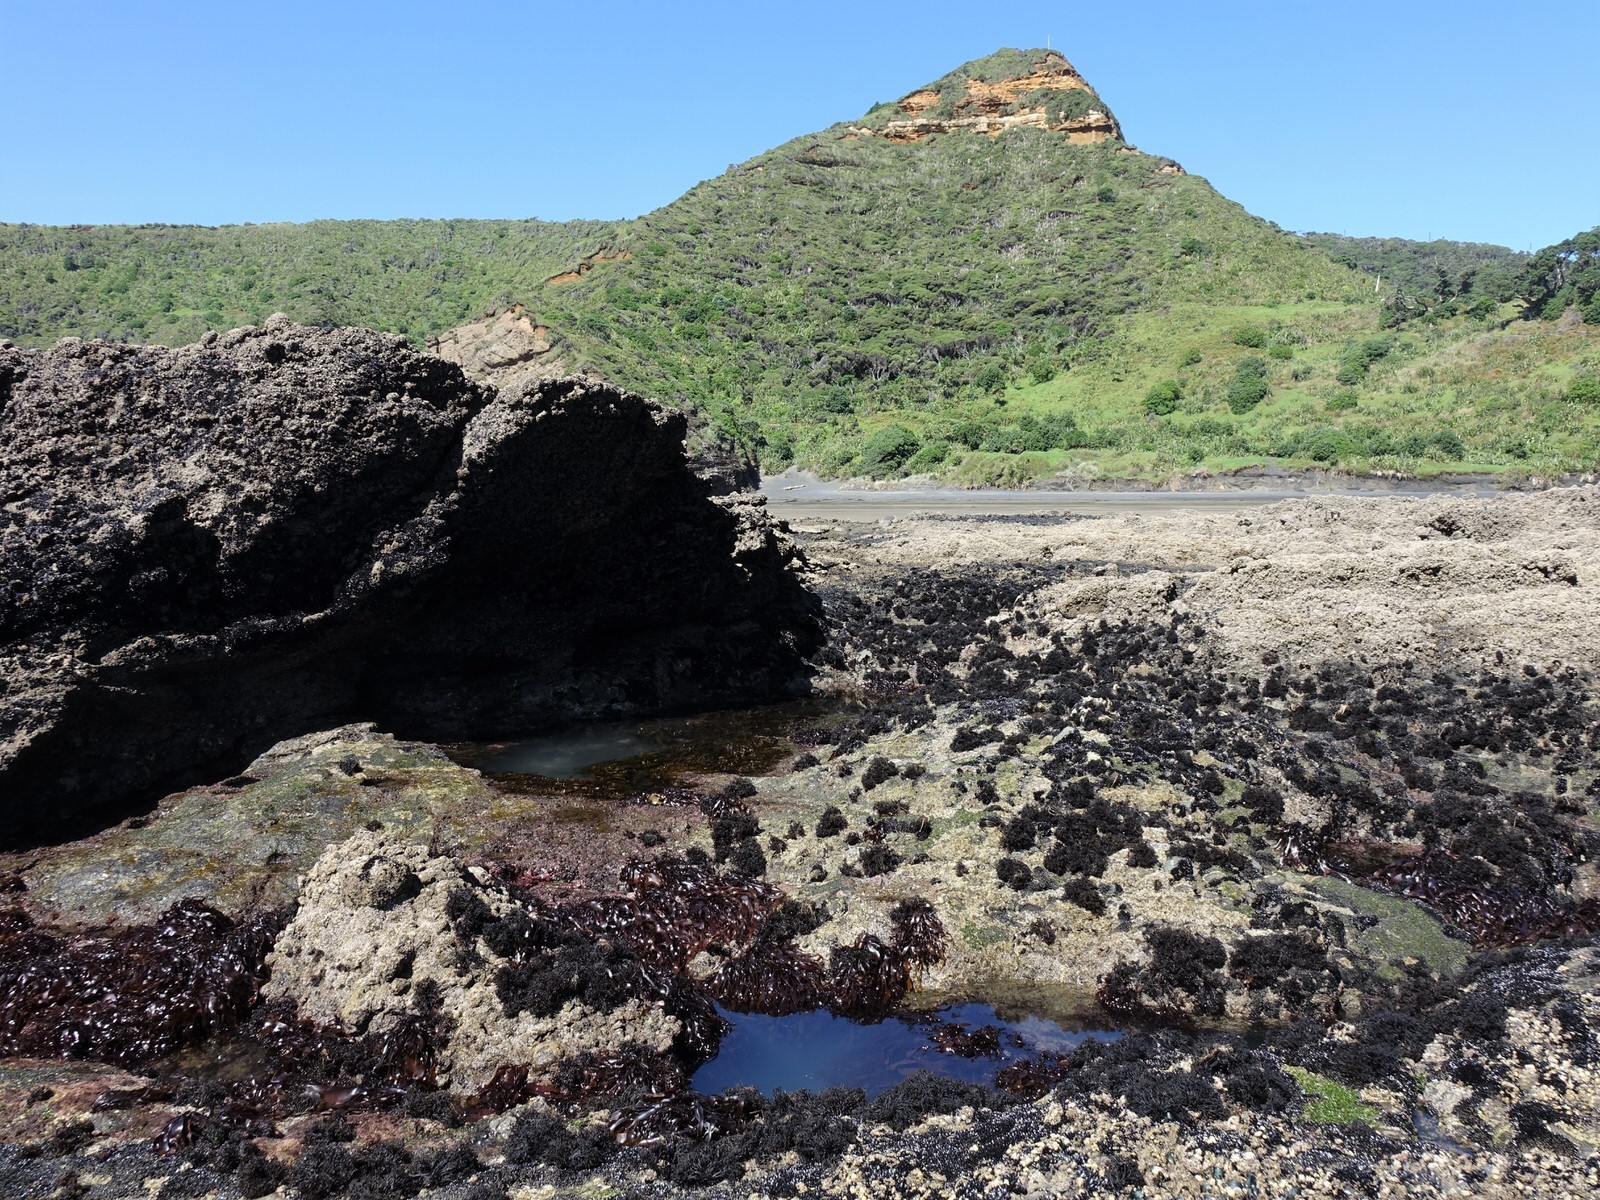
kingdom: Animalia
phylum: Arthropoda
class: Malacostraca
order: Decapoda
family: Hippolytidae
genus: Alope
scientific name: Alope spinifrons
